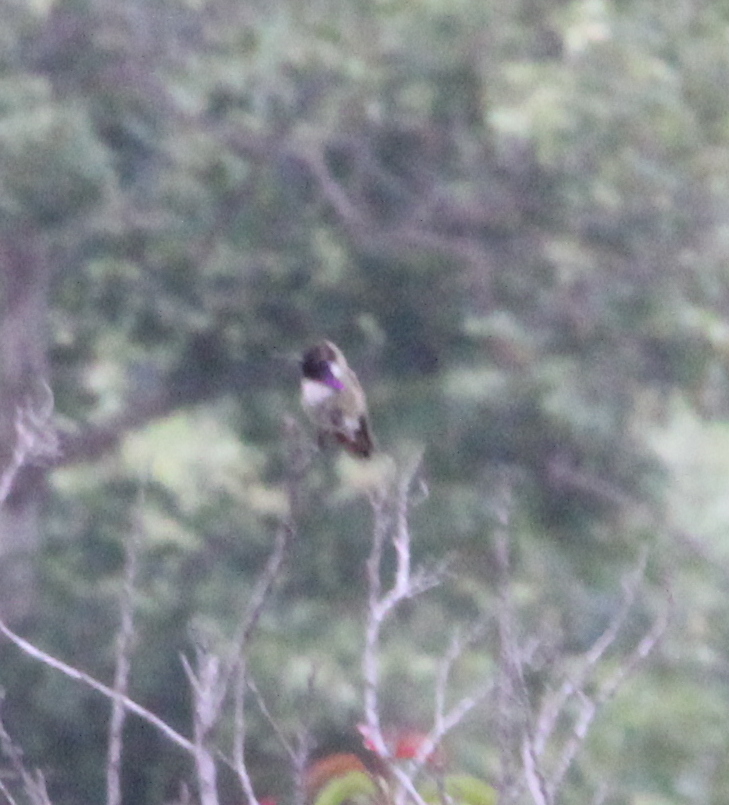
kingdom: Animalia
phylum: Chordata
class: Aves
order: Apodiformes
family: Trochilidae
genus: Calypte
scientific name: Calypte costae
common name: Costa's hummingbird
